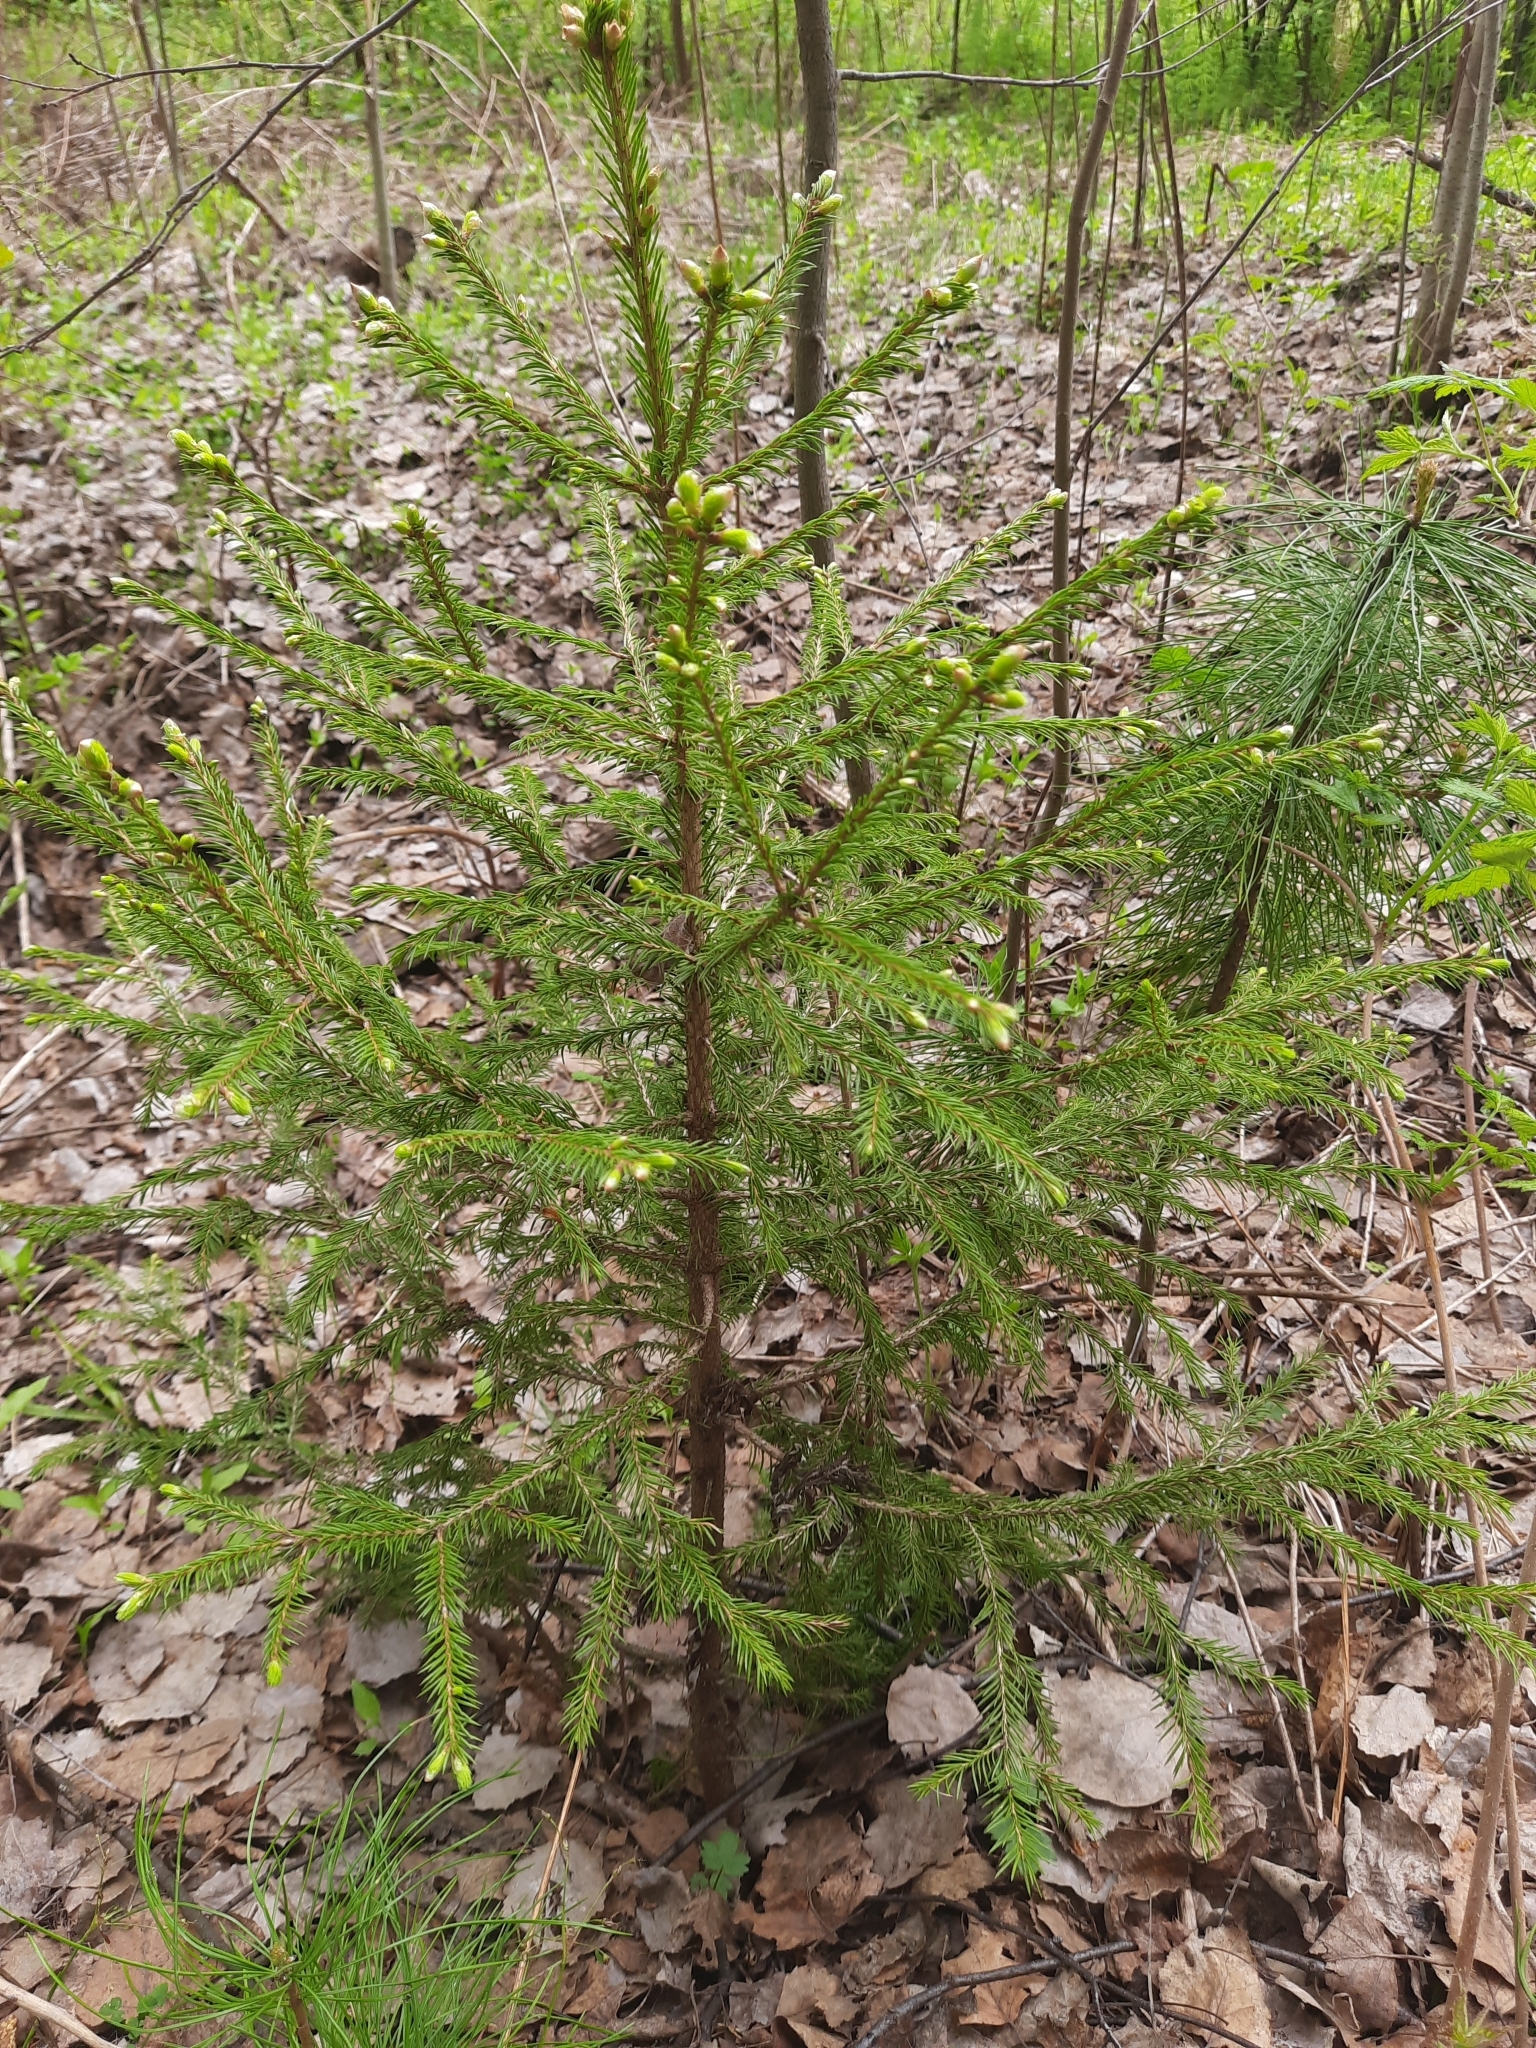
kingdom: Plantae
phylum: Tracheophyta
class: Pinopsida
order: Pinales
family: Pinaceae
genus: Picea
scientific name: Picea obovata
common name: Siberian spruce
